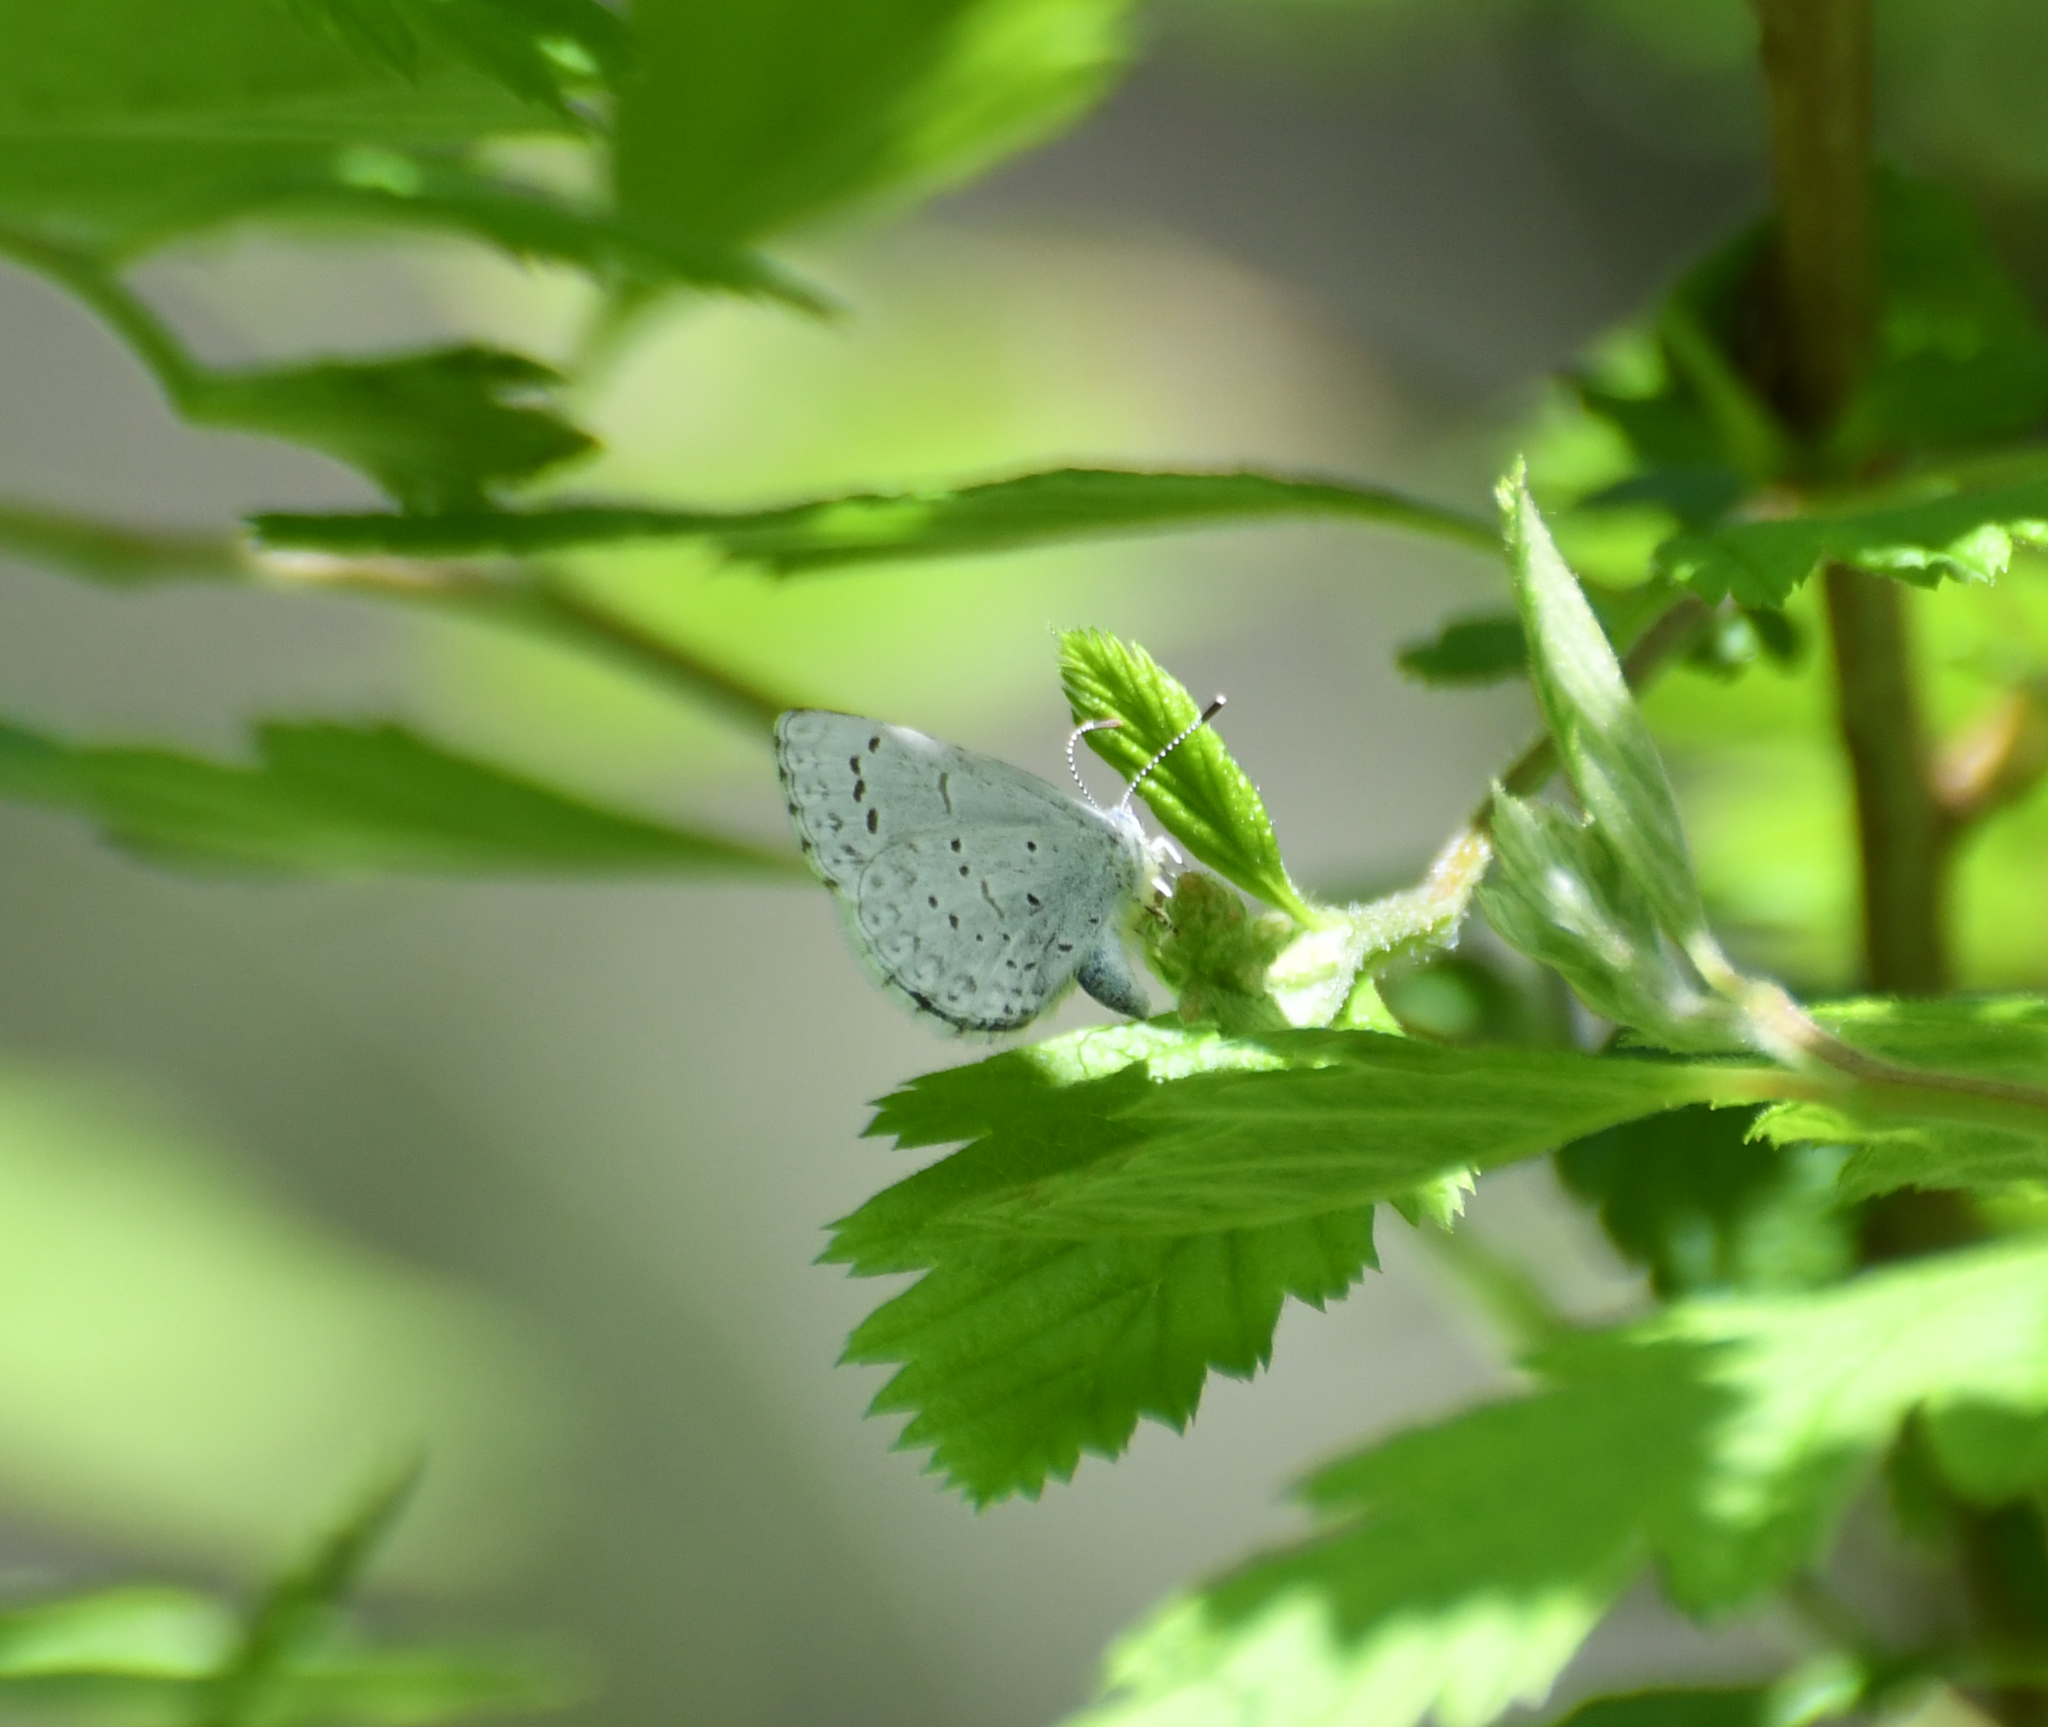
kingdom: Animalia
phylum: Arthropoda
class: Insecta
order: Lepidoptera
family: Lycaenidae
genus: Celastrina
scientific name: Celastrina ladon
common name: Spring azure
